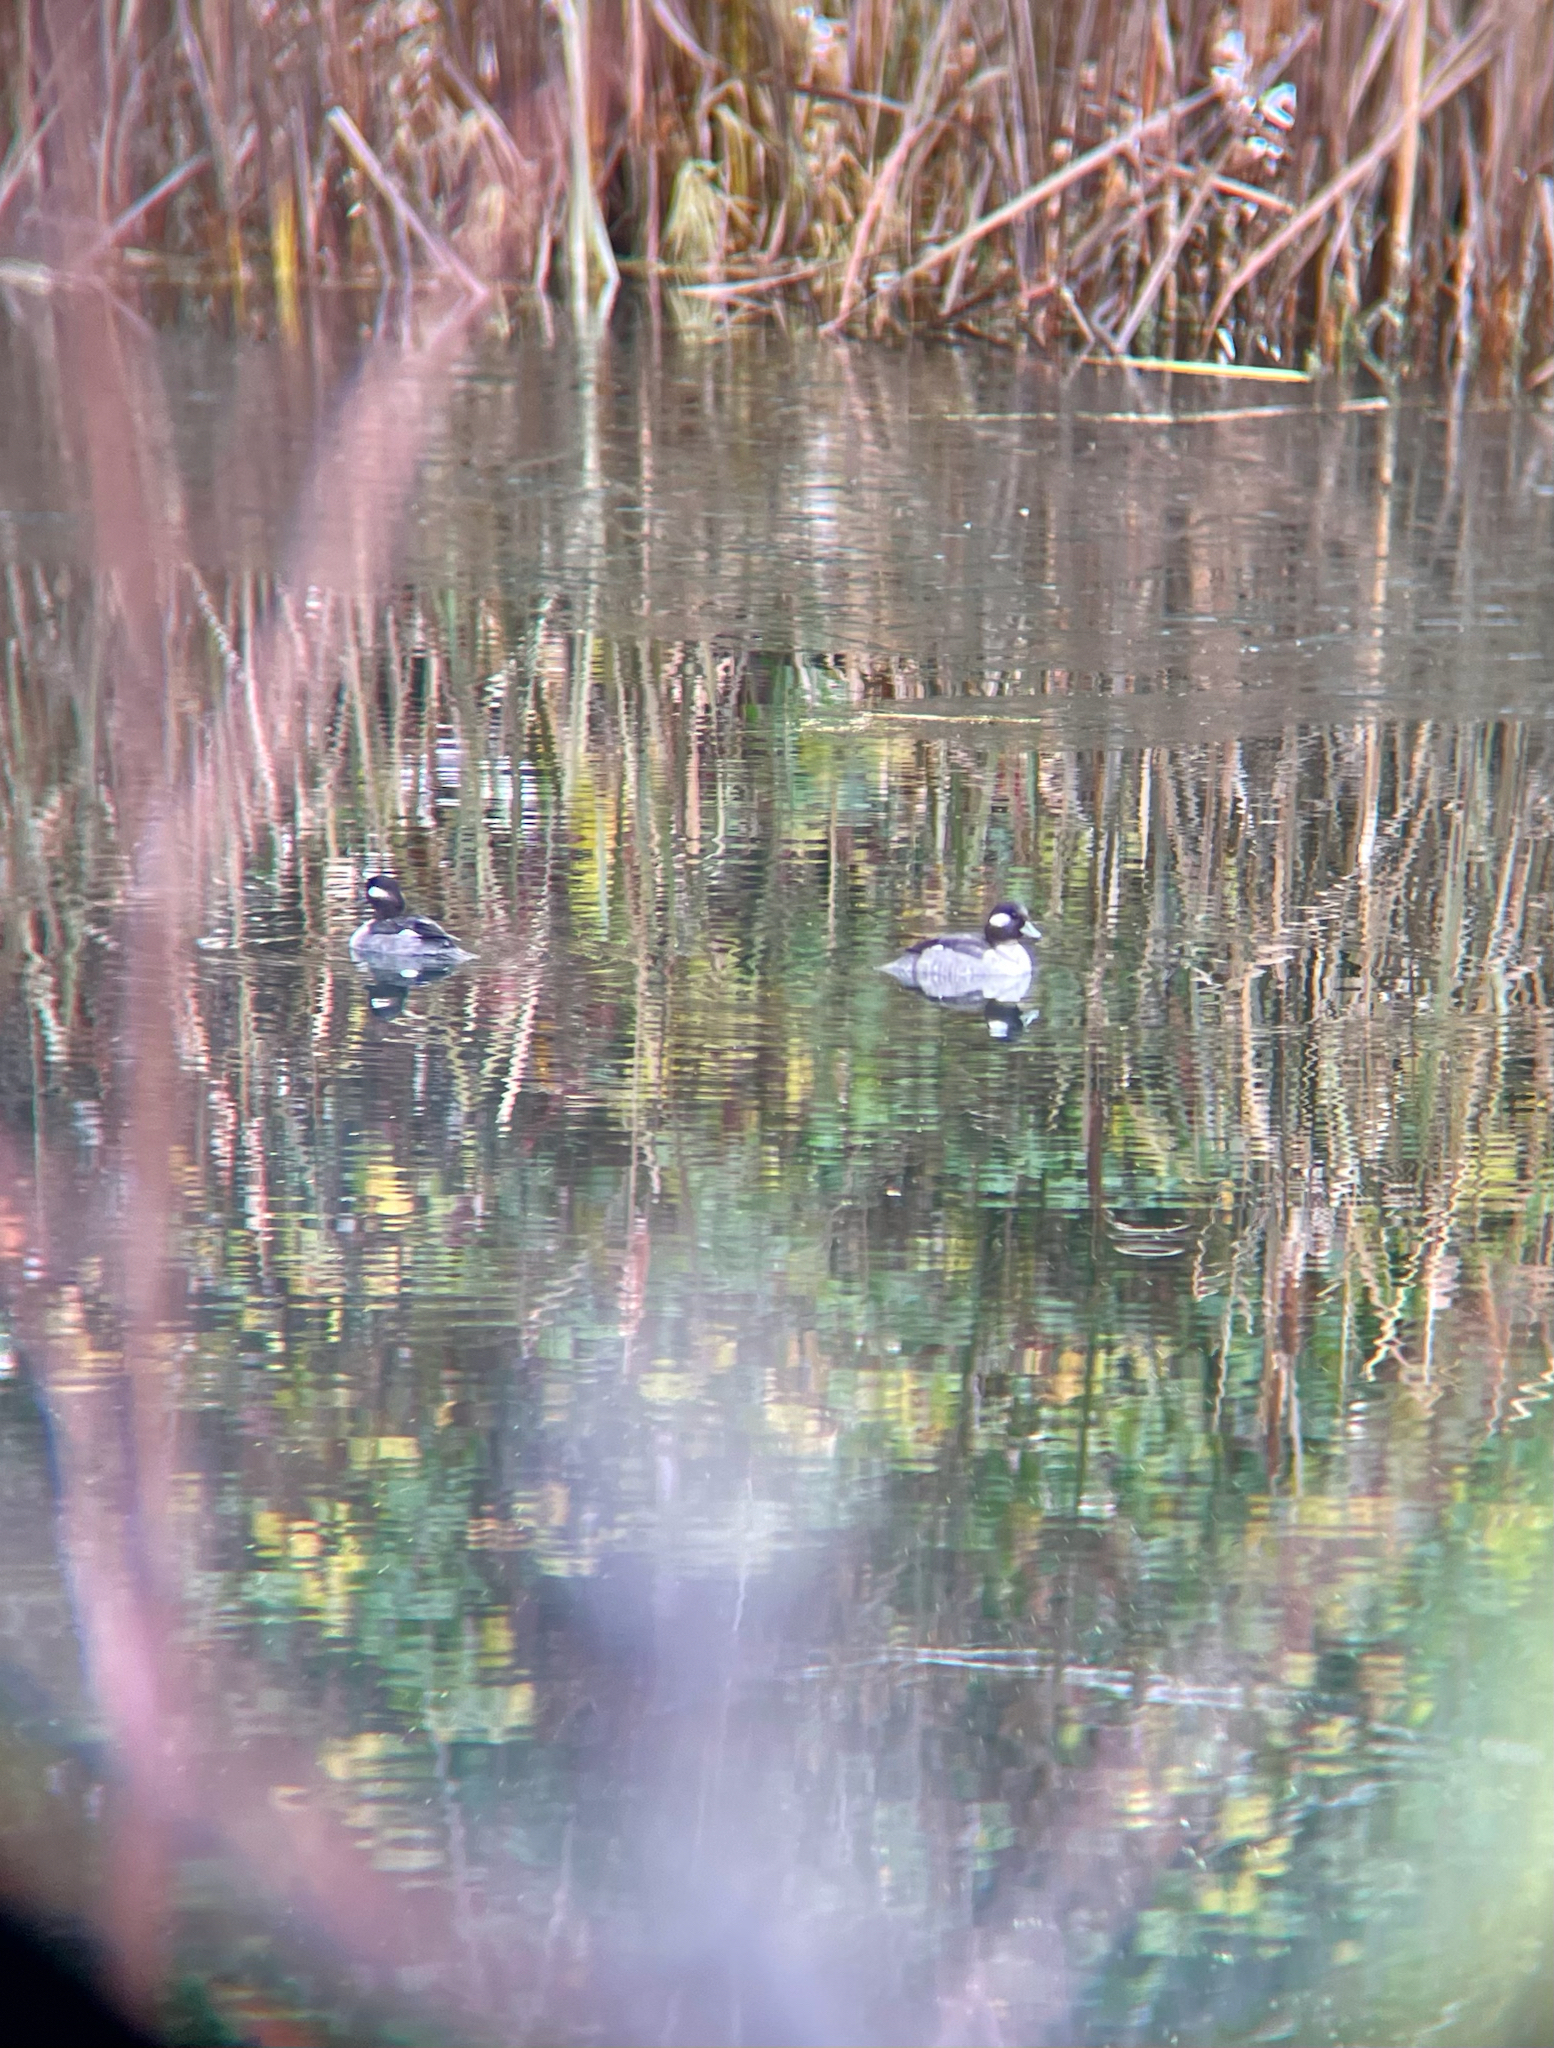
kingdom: Animalia
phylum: Chordata
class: Aves
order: Anseriformes
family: Anatidae
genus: Bucephala
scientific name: Bucephala albeola
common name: Bufflehead
